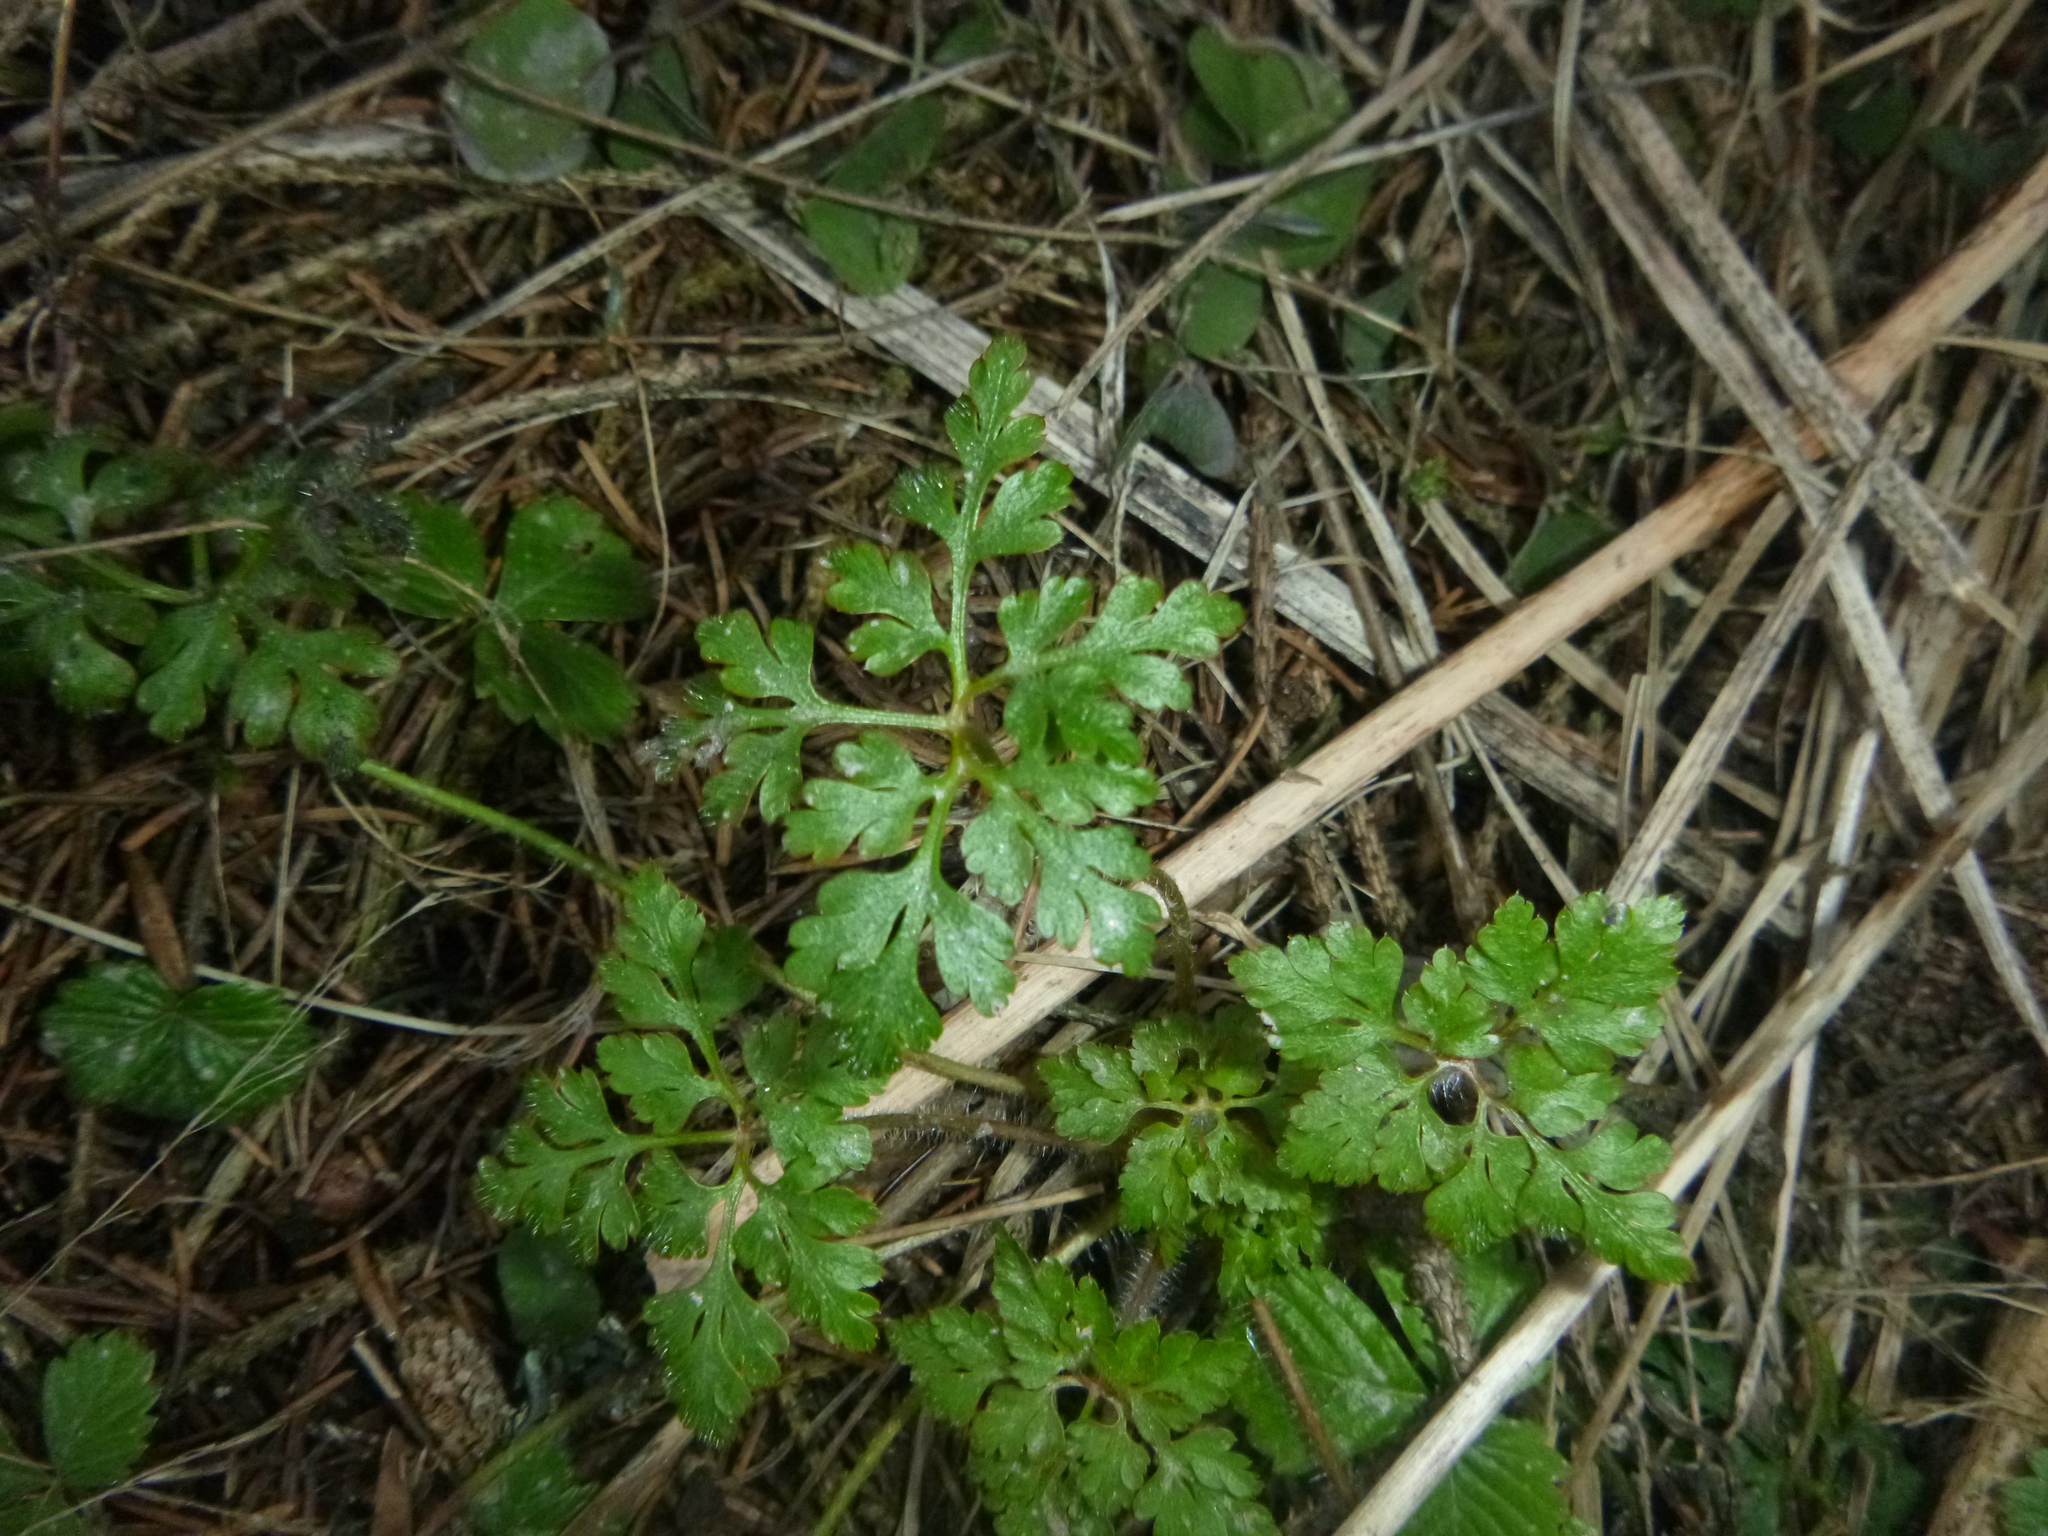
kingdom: Plantae
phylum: Tracheophyta
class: Magnoliopsida
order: Geraniales
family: Geraniaceae
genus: Geranium
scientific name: Geranium robertianum
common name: Herb-robert
